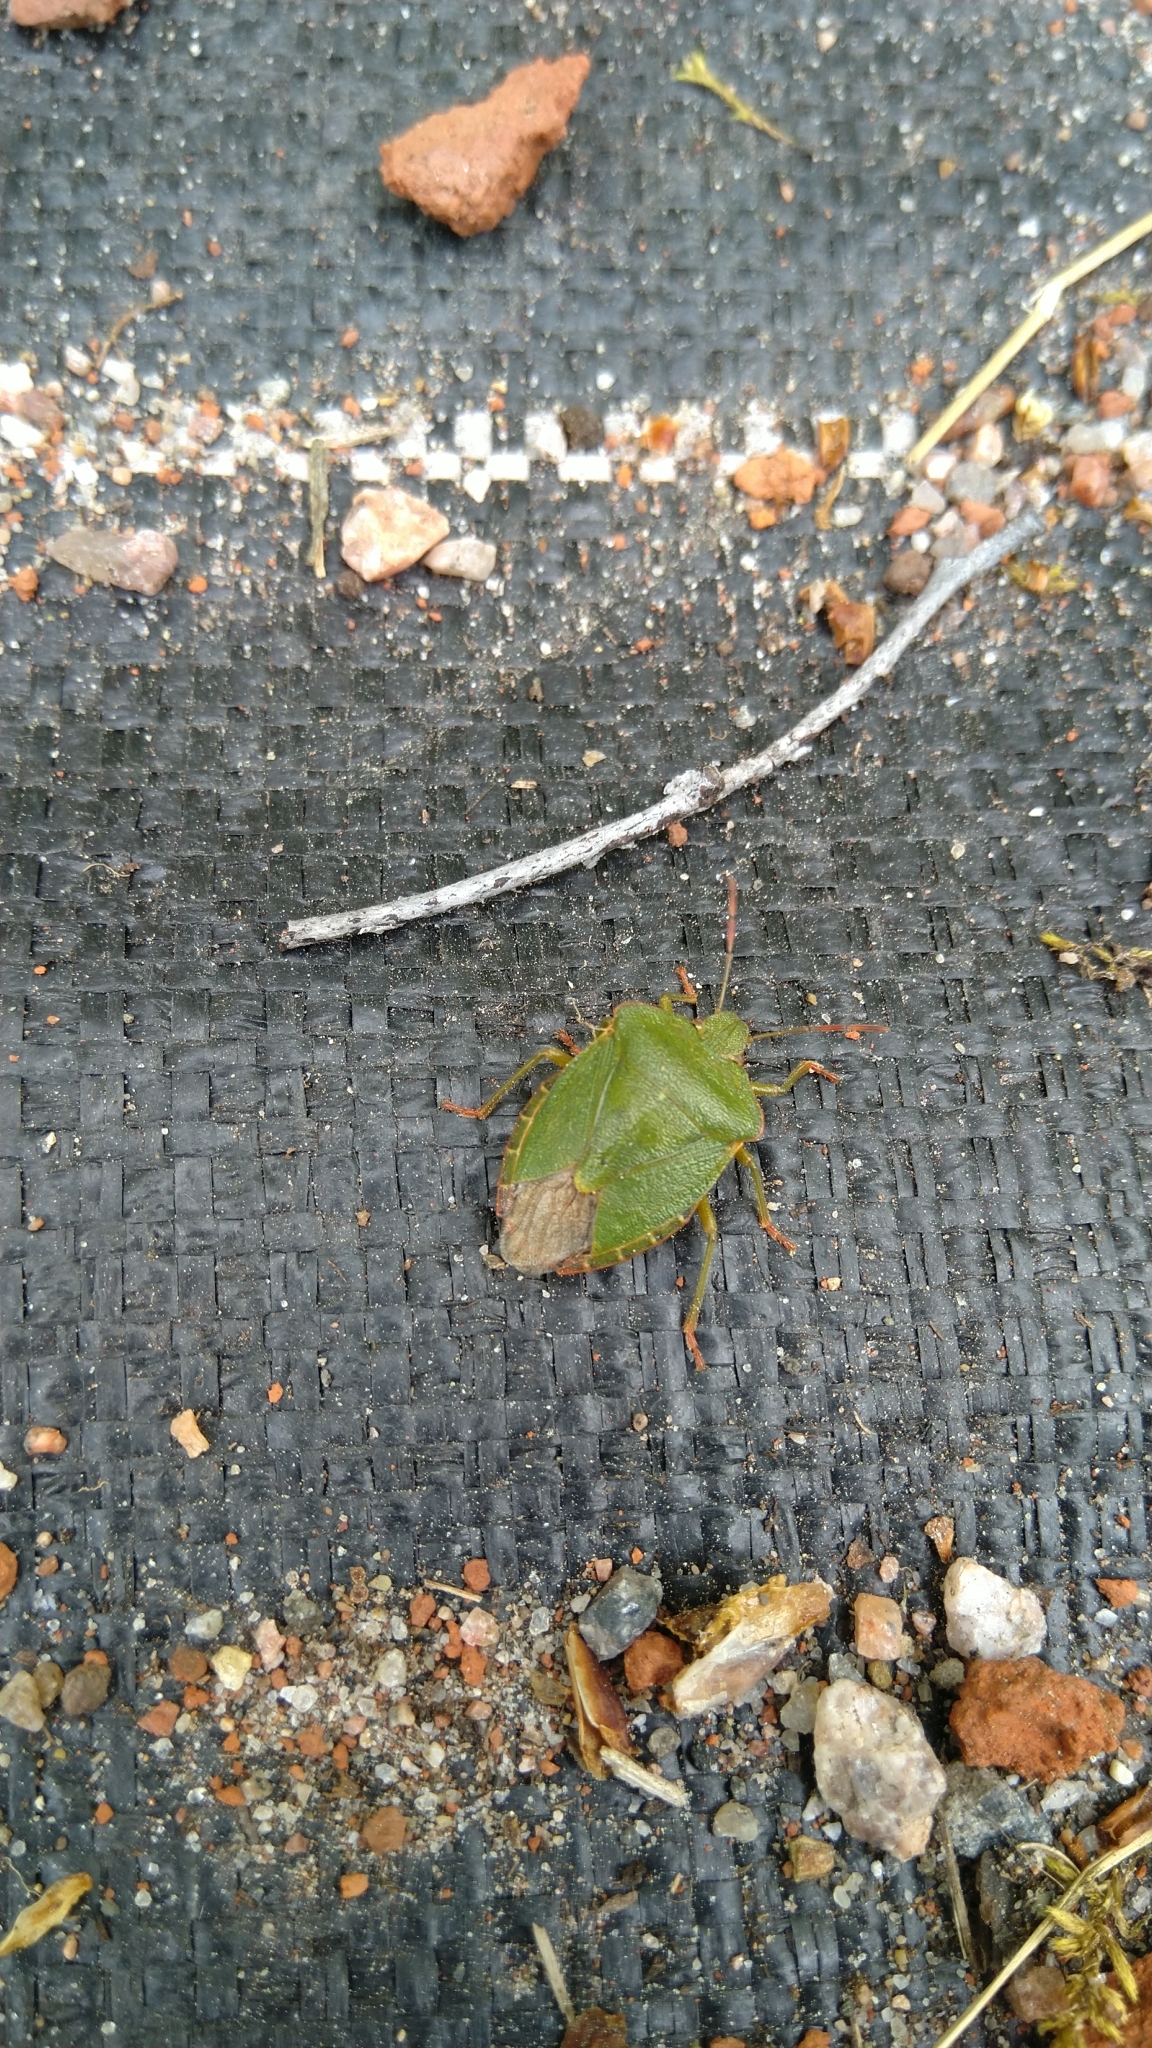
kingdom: Animalia
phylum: Arthropoda
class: Insecta
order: Hemiptera
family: Pentatomidae
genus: Palomena
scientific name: Palomena prasina
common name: Green shieldbug
